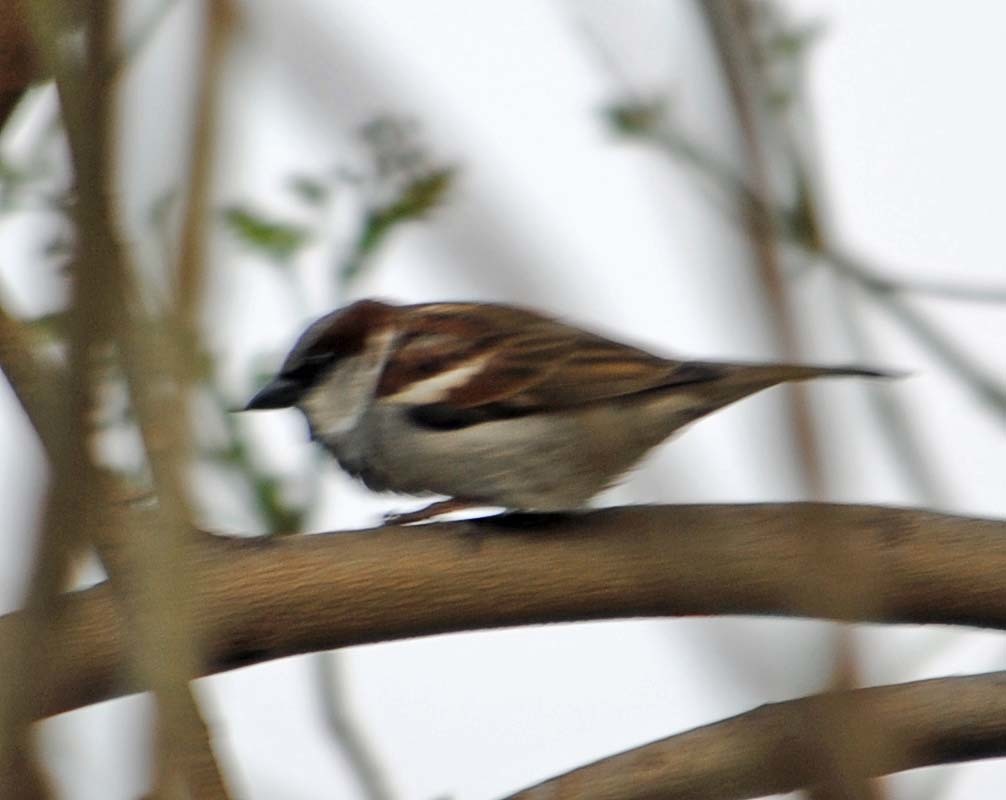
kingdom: Animalia
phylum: Chordata
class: Aves
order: Passeriformes
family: Passeridae
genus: Passer
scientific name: Passer domesticus
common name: House sparrow
